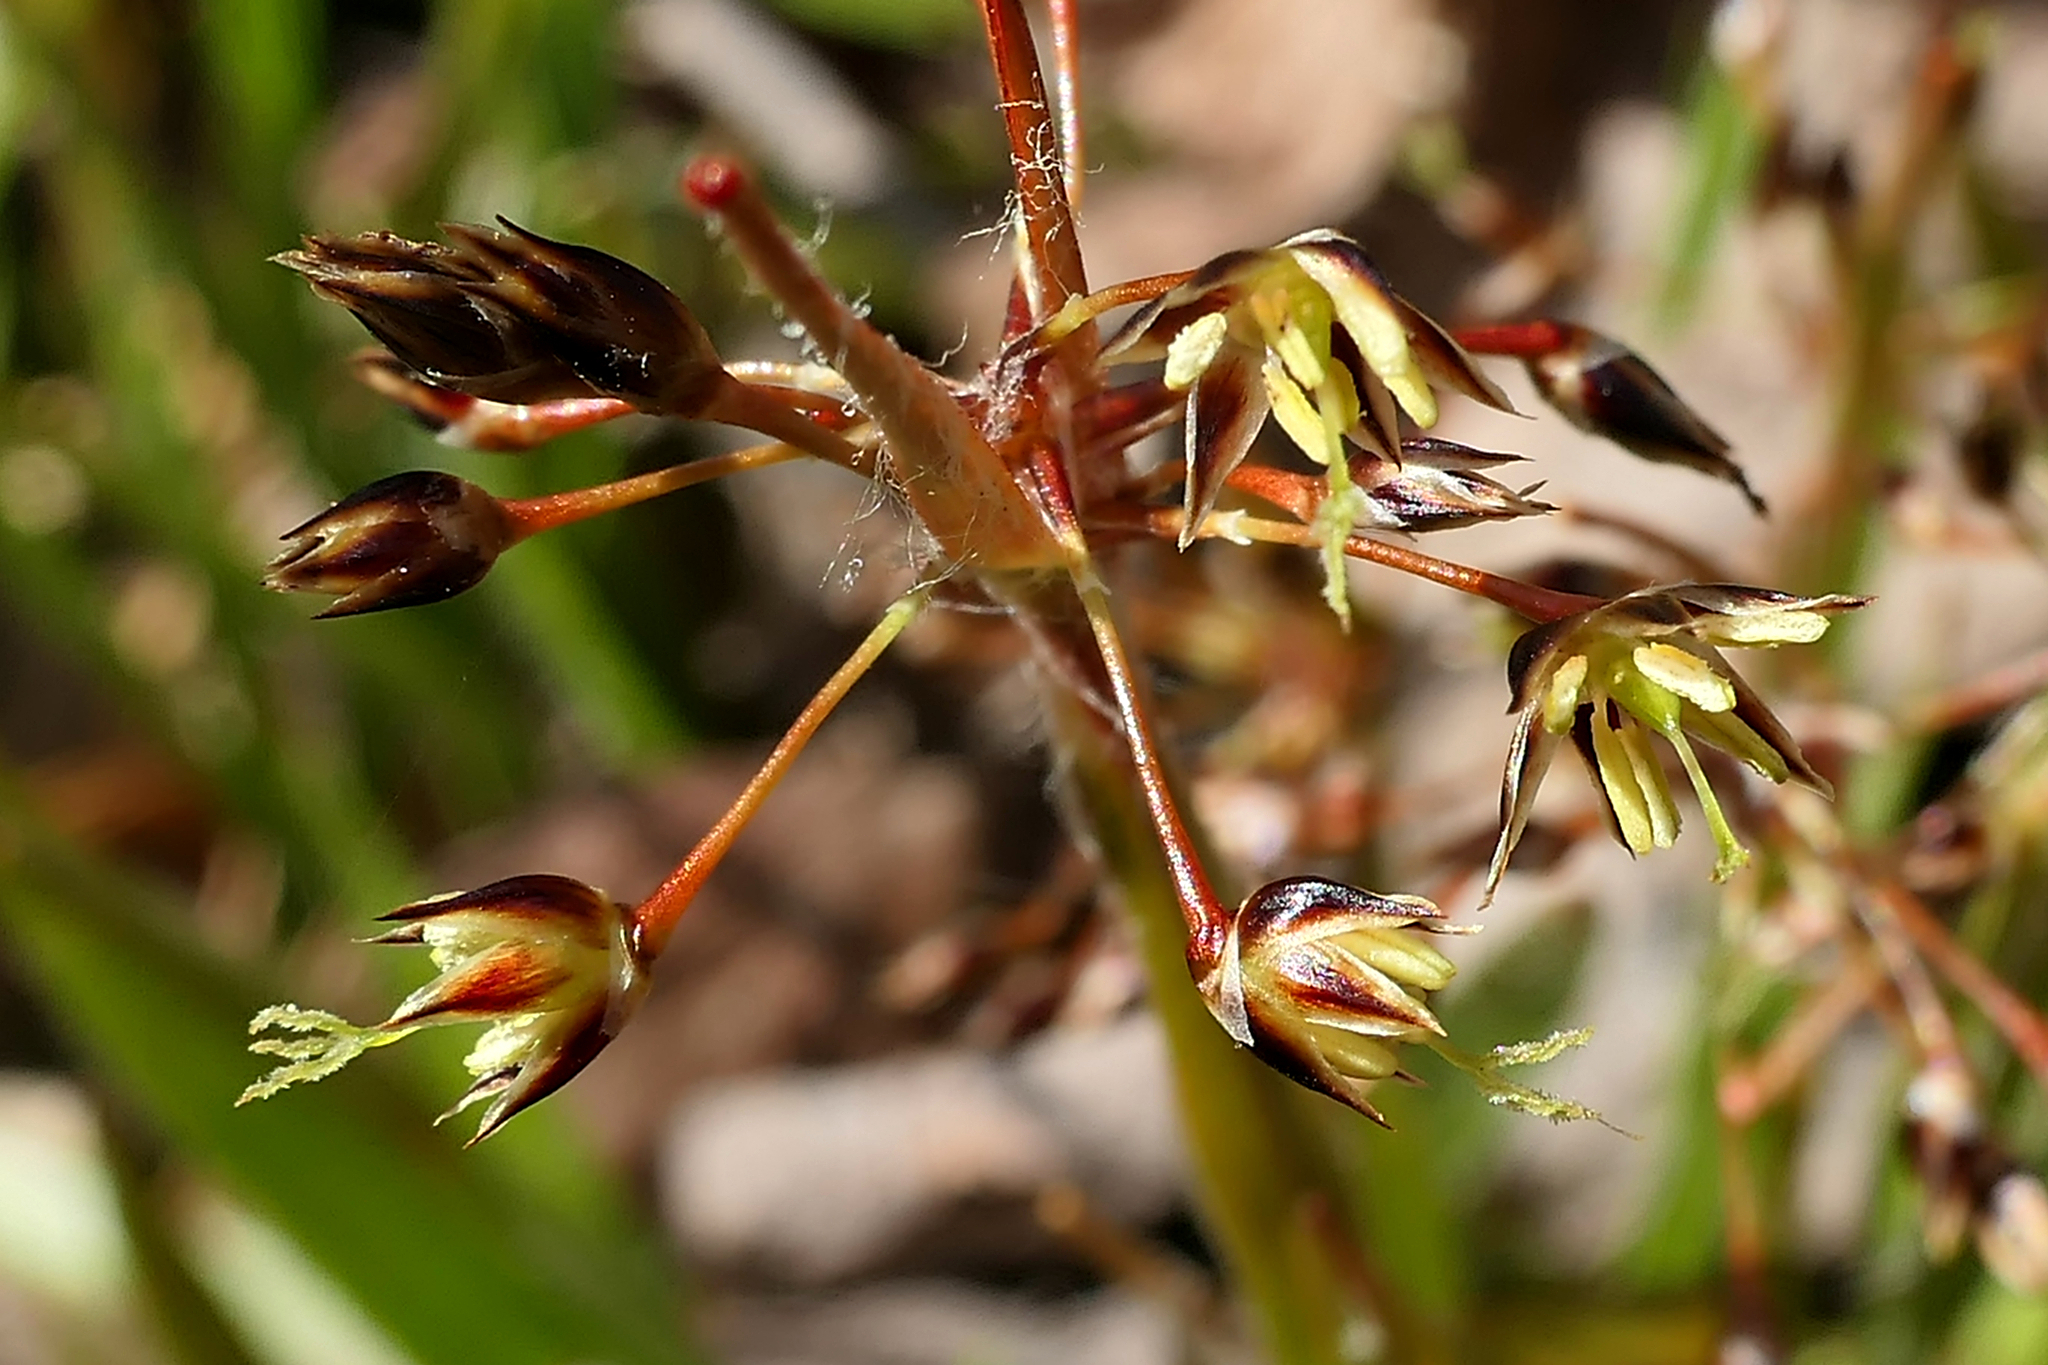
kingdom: Plantae
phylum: Tracheophyta
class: Liliopsida
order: Poales
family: Juncaceae
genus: Luzula
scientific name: Luzula acuminata
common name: Hairy woodrush
